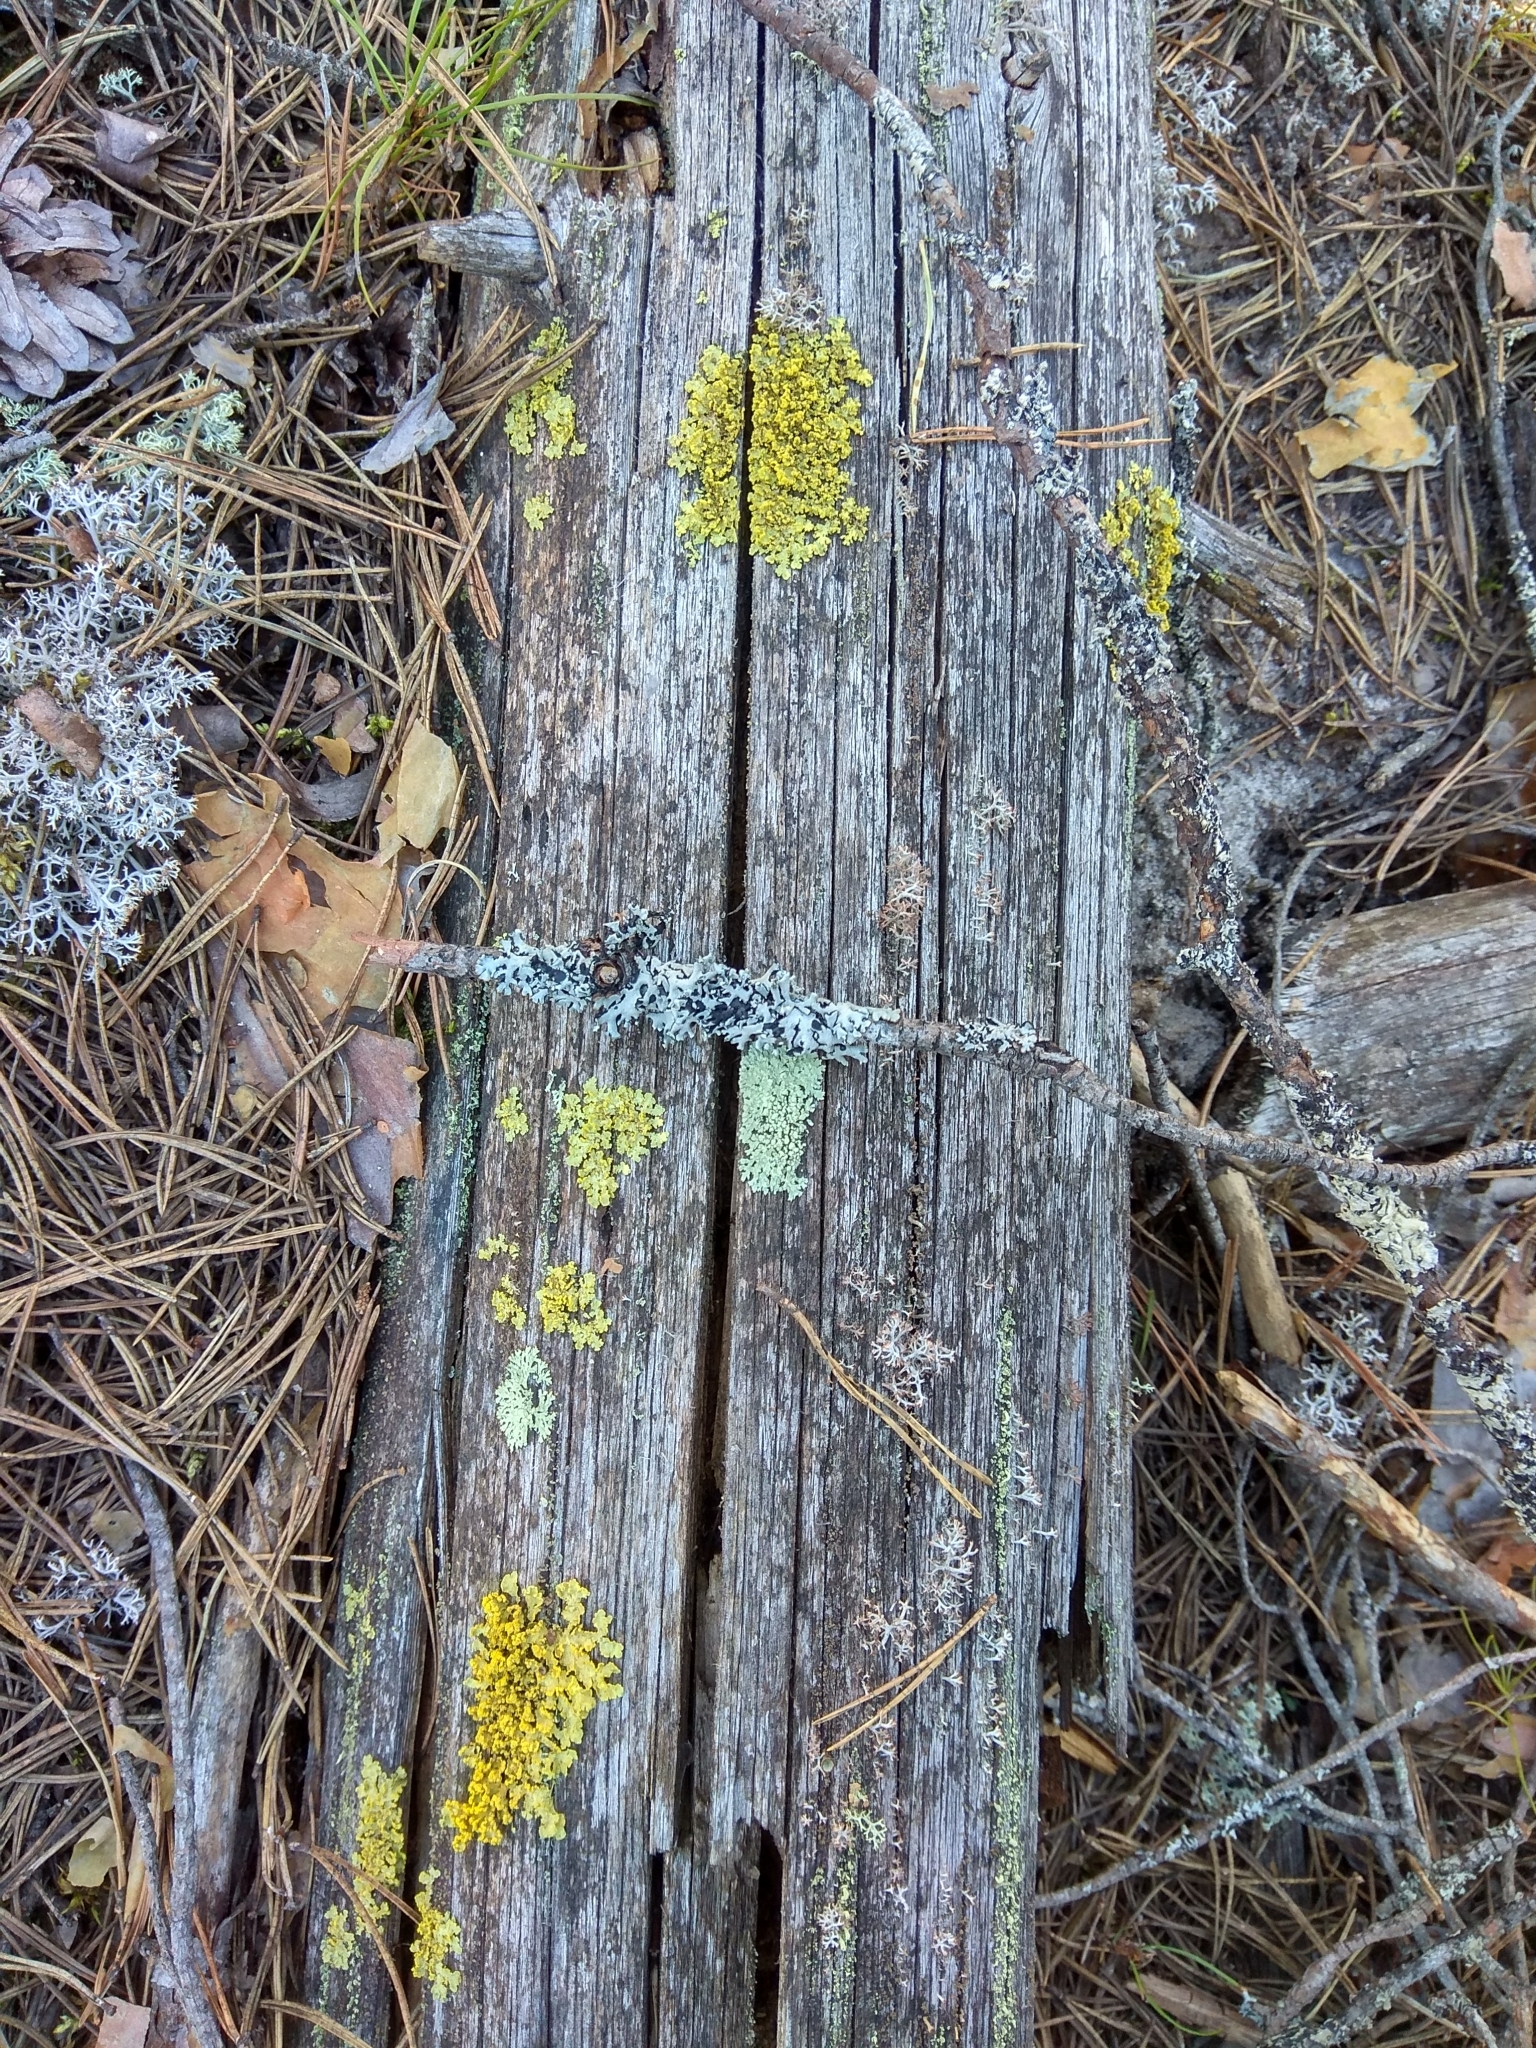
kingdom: Fungi
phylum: Ascomycota
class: Lecanoromycetes
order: Lecanorales
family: Parmeliaceae
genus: Vulpicida
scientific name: Vulpicida pinastri
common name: Powdered sunshine lichen
